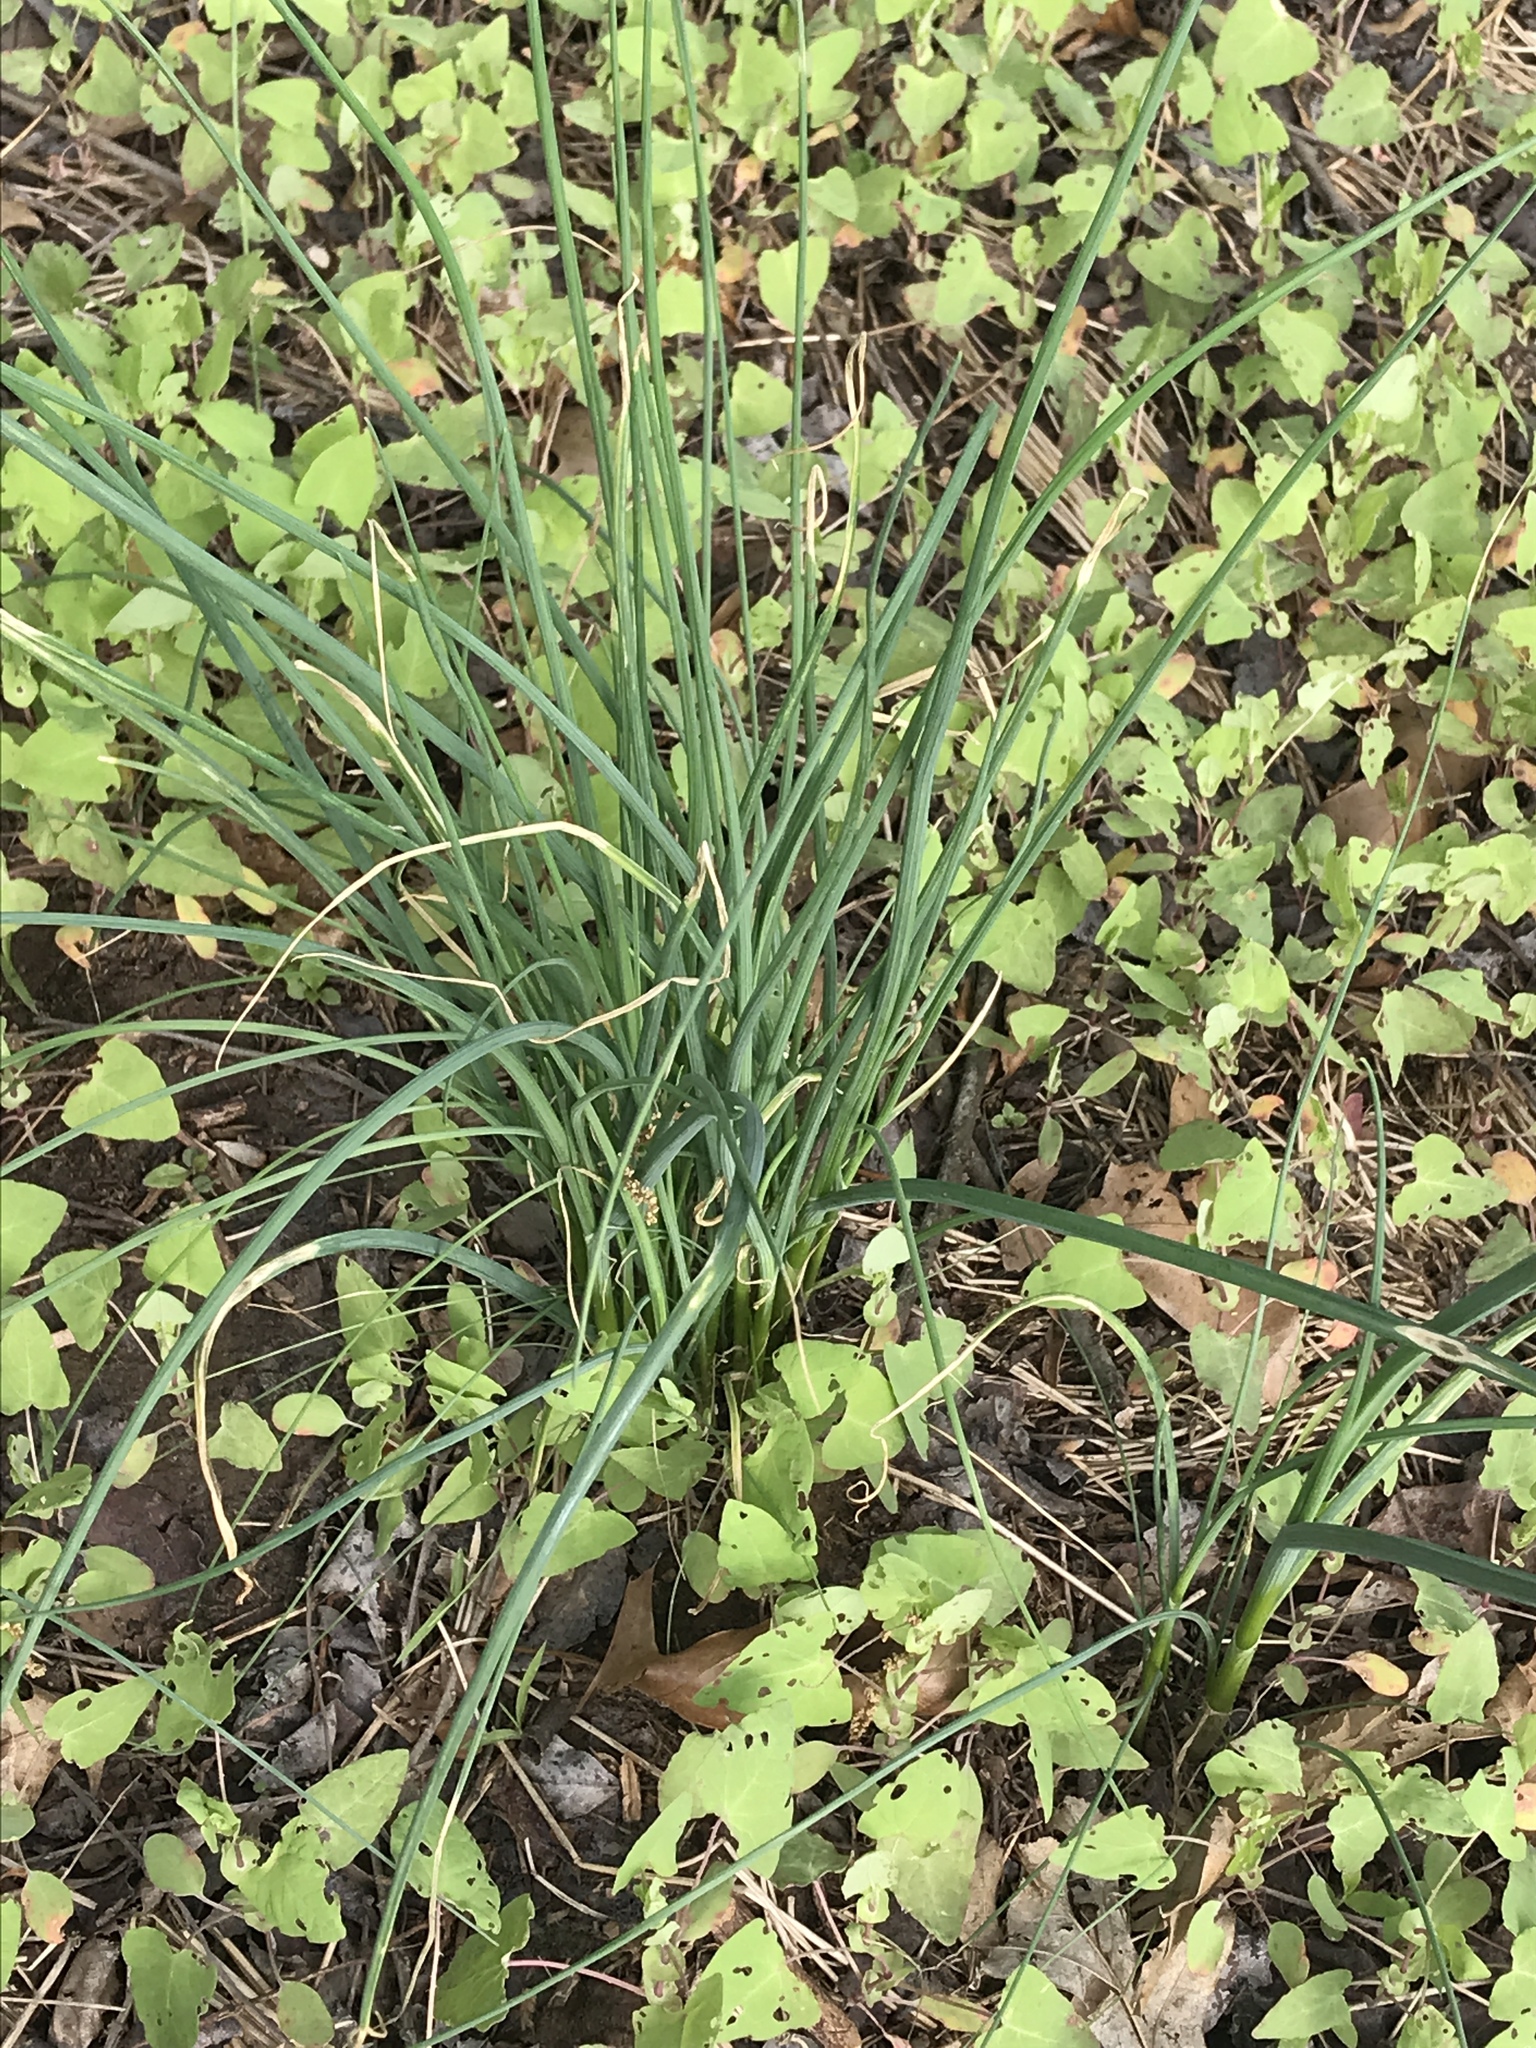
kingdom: Plantae
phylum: Tracheophyta
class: Magnoliopsida
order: Caryophyllales
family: Polygonaceae
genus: Persicaria
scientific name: Persicaria perfoliata
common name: Asiatic tearthumb
